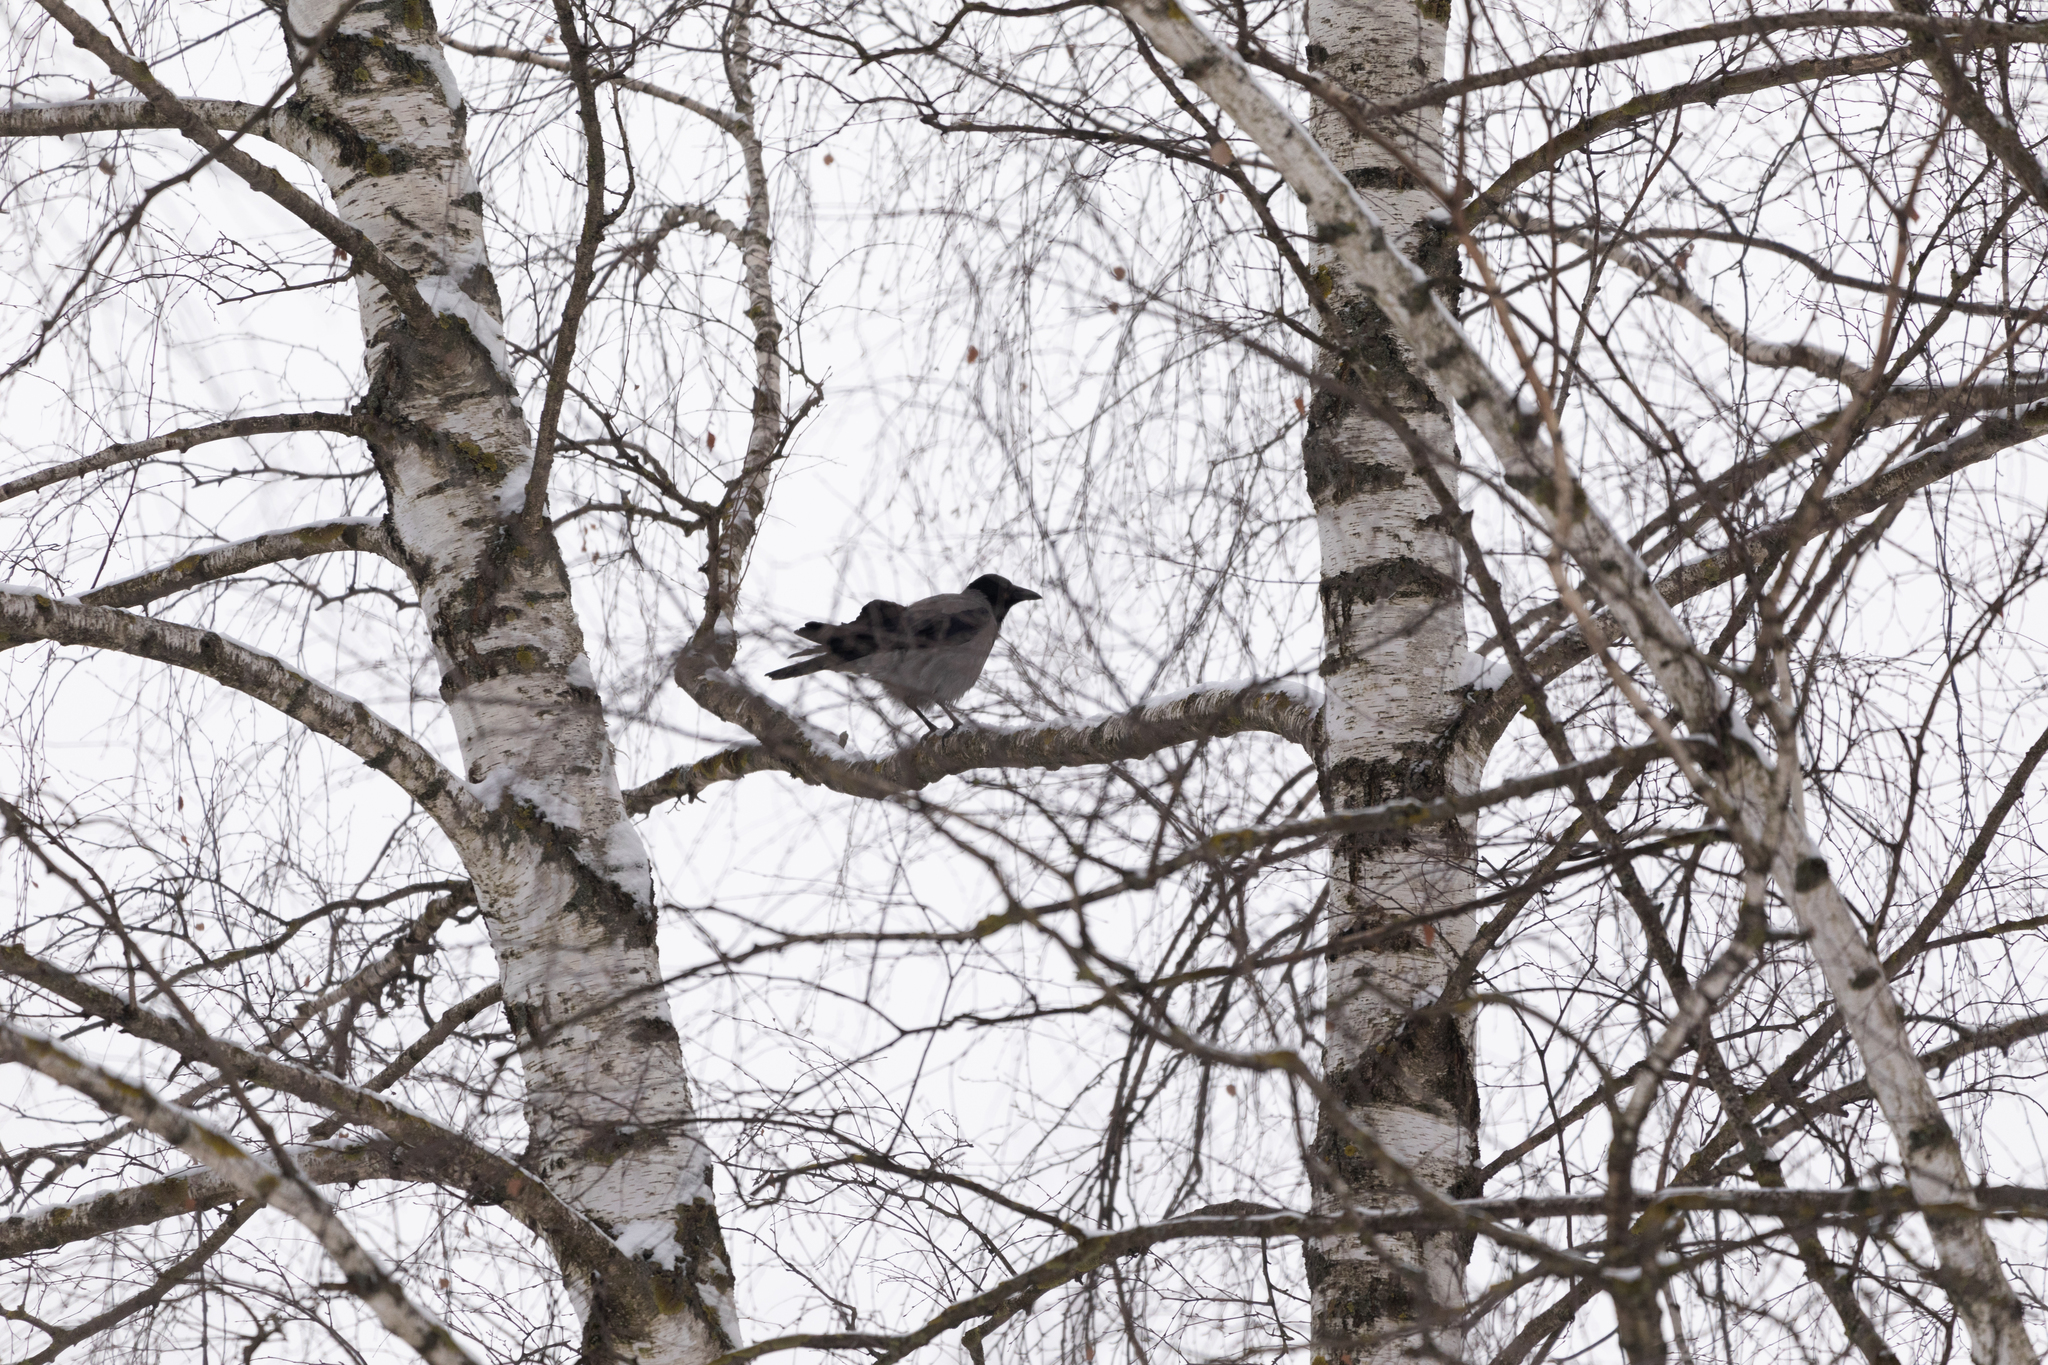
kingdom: Animalia
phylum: Chordata
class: Aves
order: Passeriformes
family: Corvidae
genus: Corvus
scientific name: Corvus cornix
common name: Hooded crow
